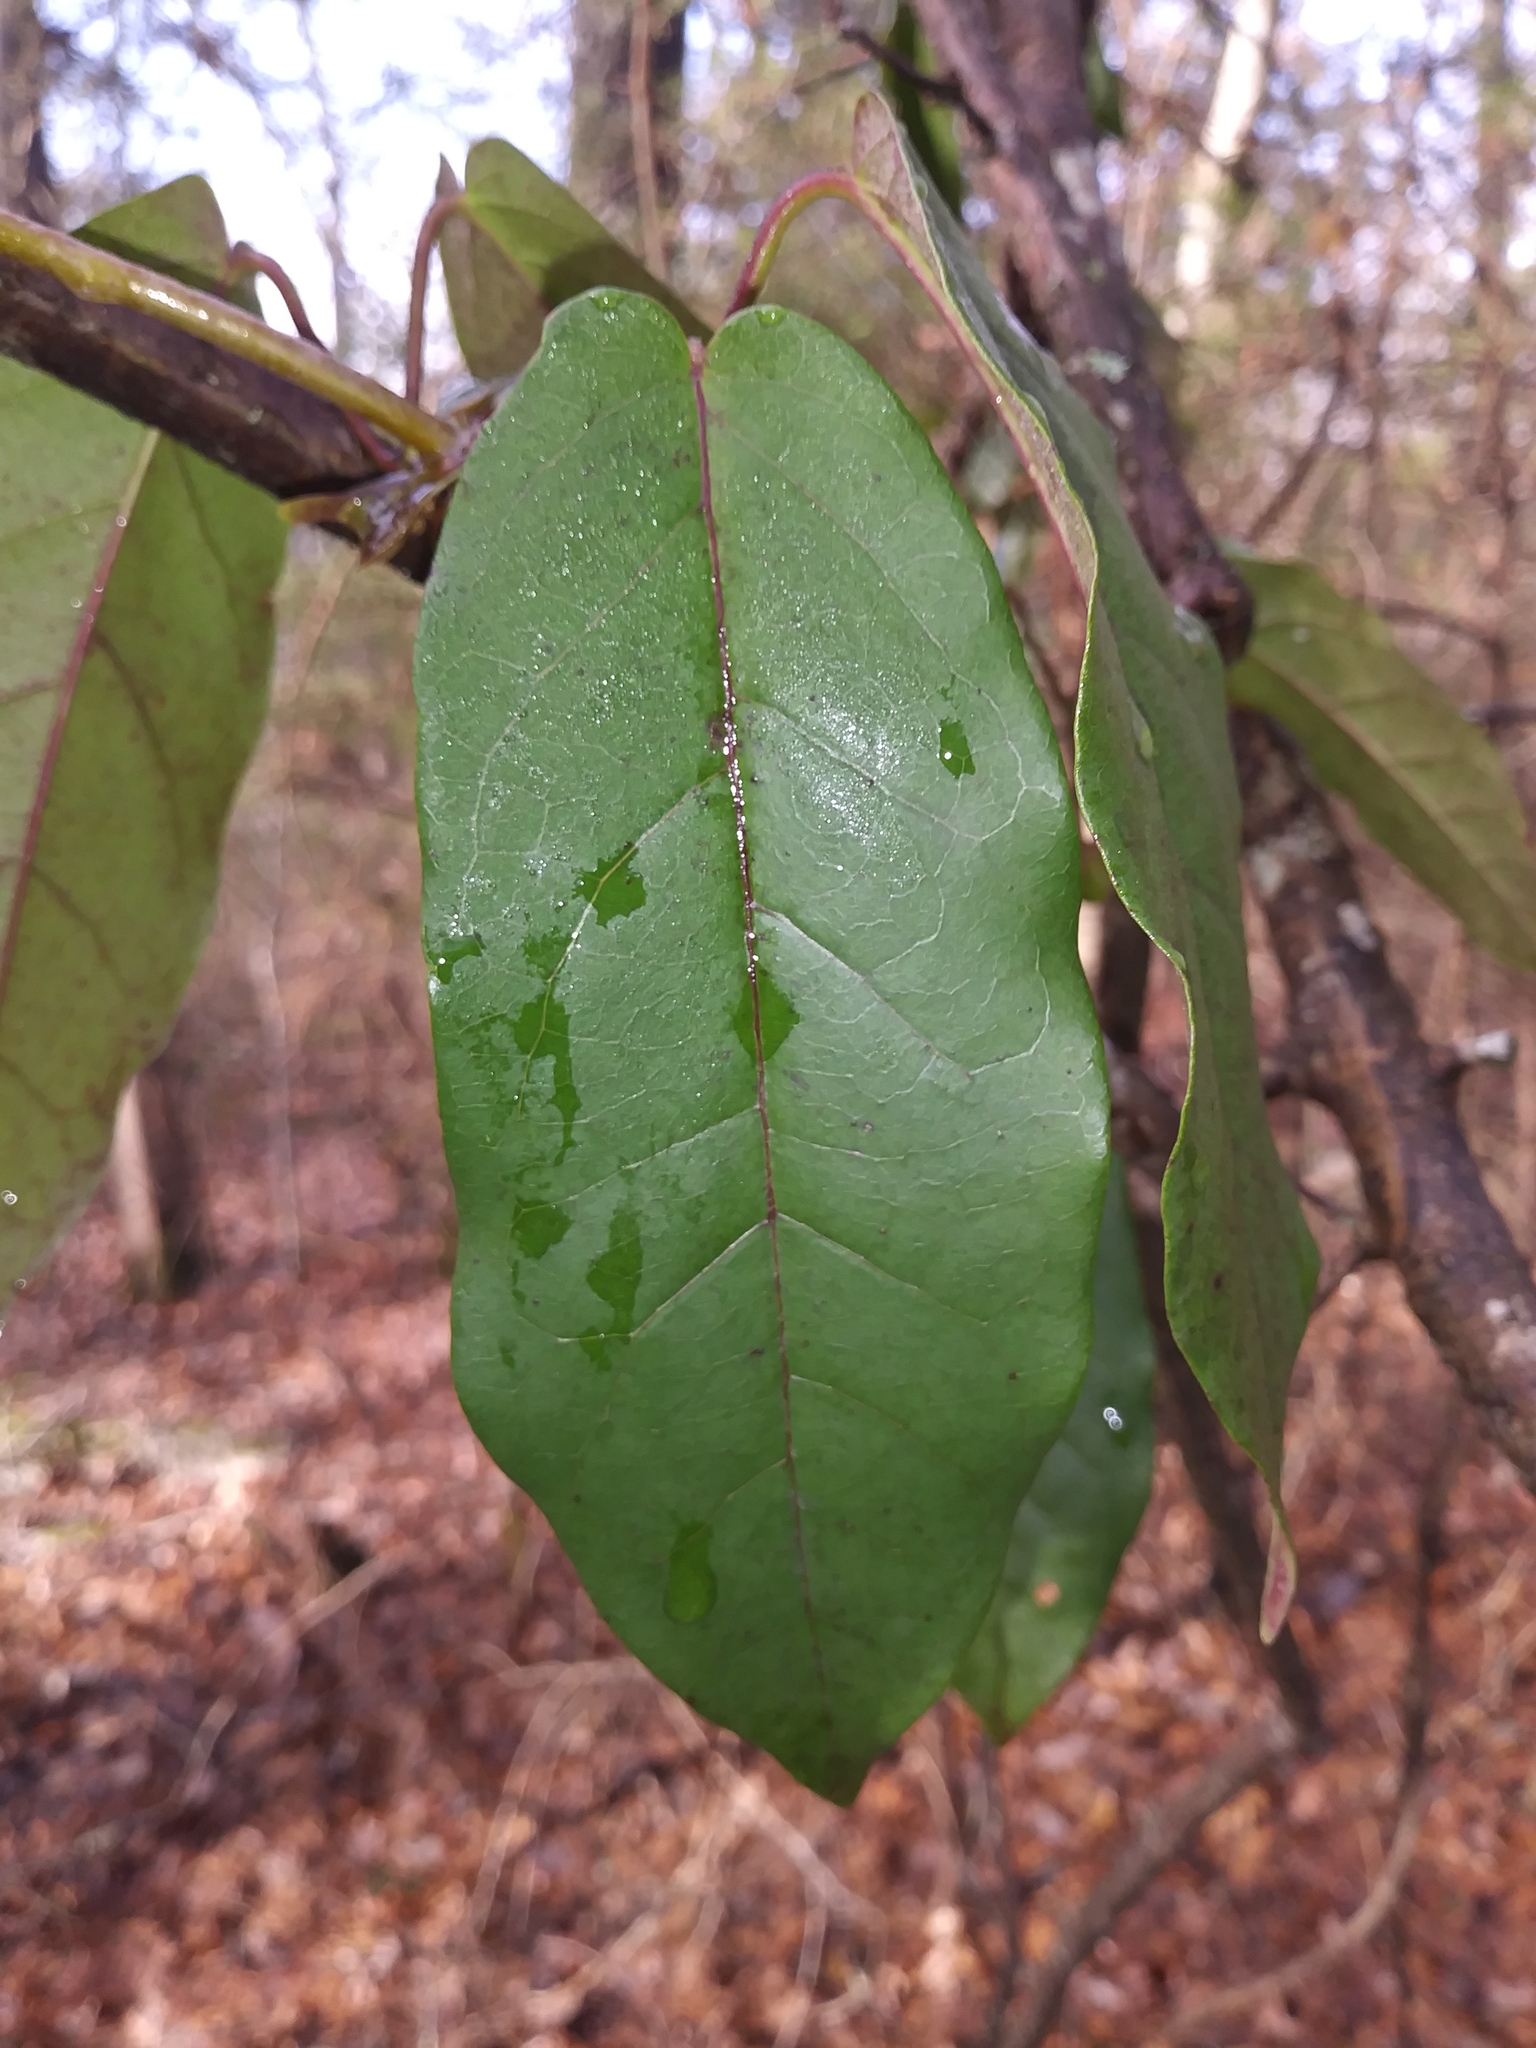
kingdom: Plantae
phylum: Tracheophyta
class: Magnoliopsida
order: Lamiales
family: Bignoniaceae
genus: Bignonia
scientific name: Bignonia capreolata
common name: Crossvine
